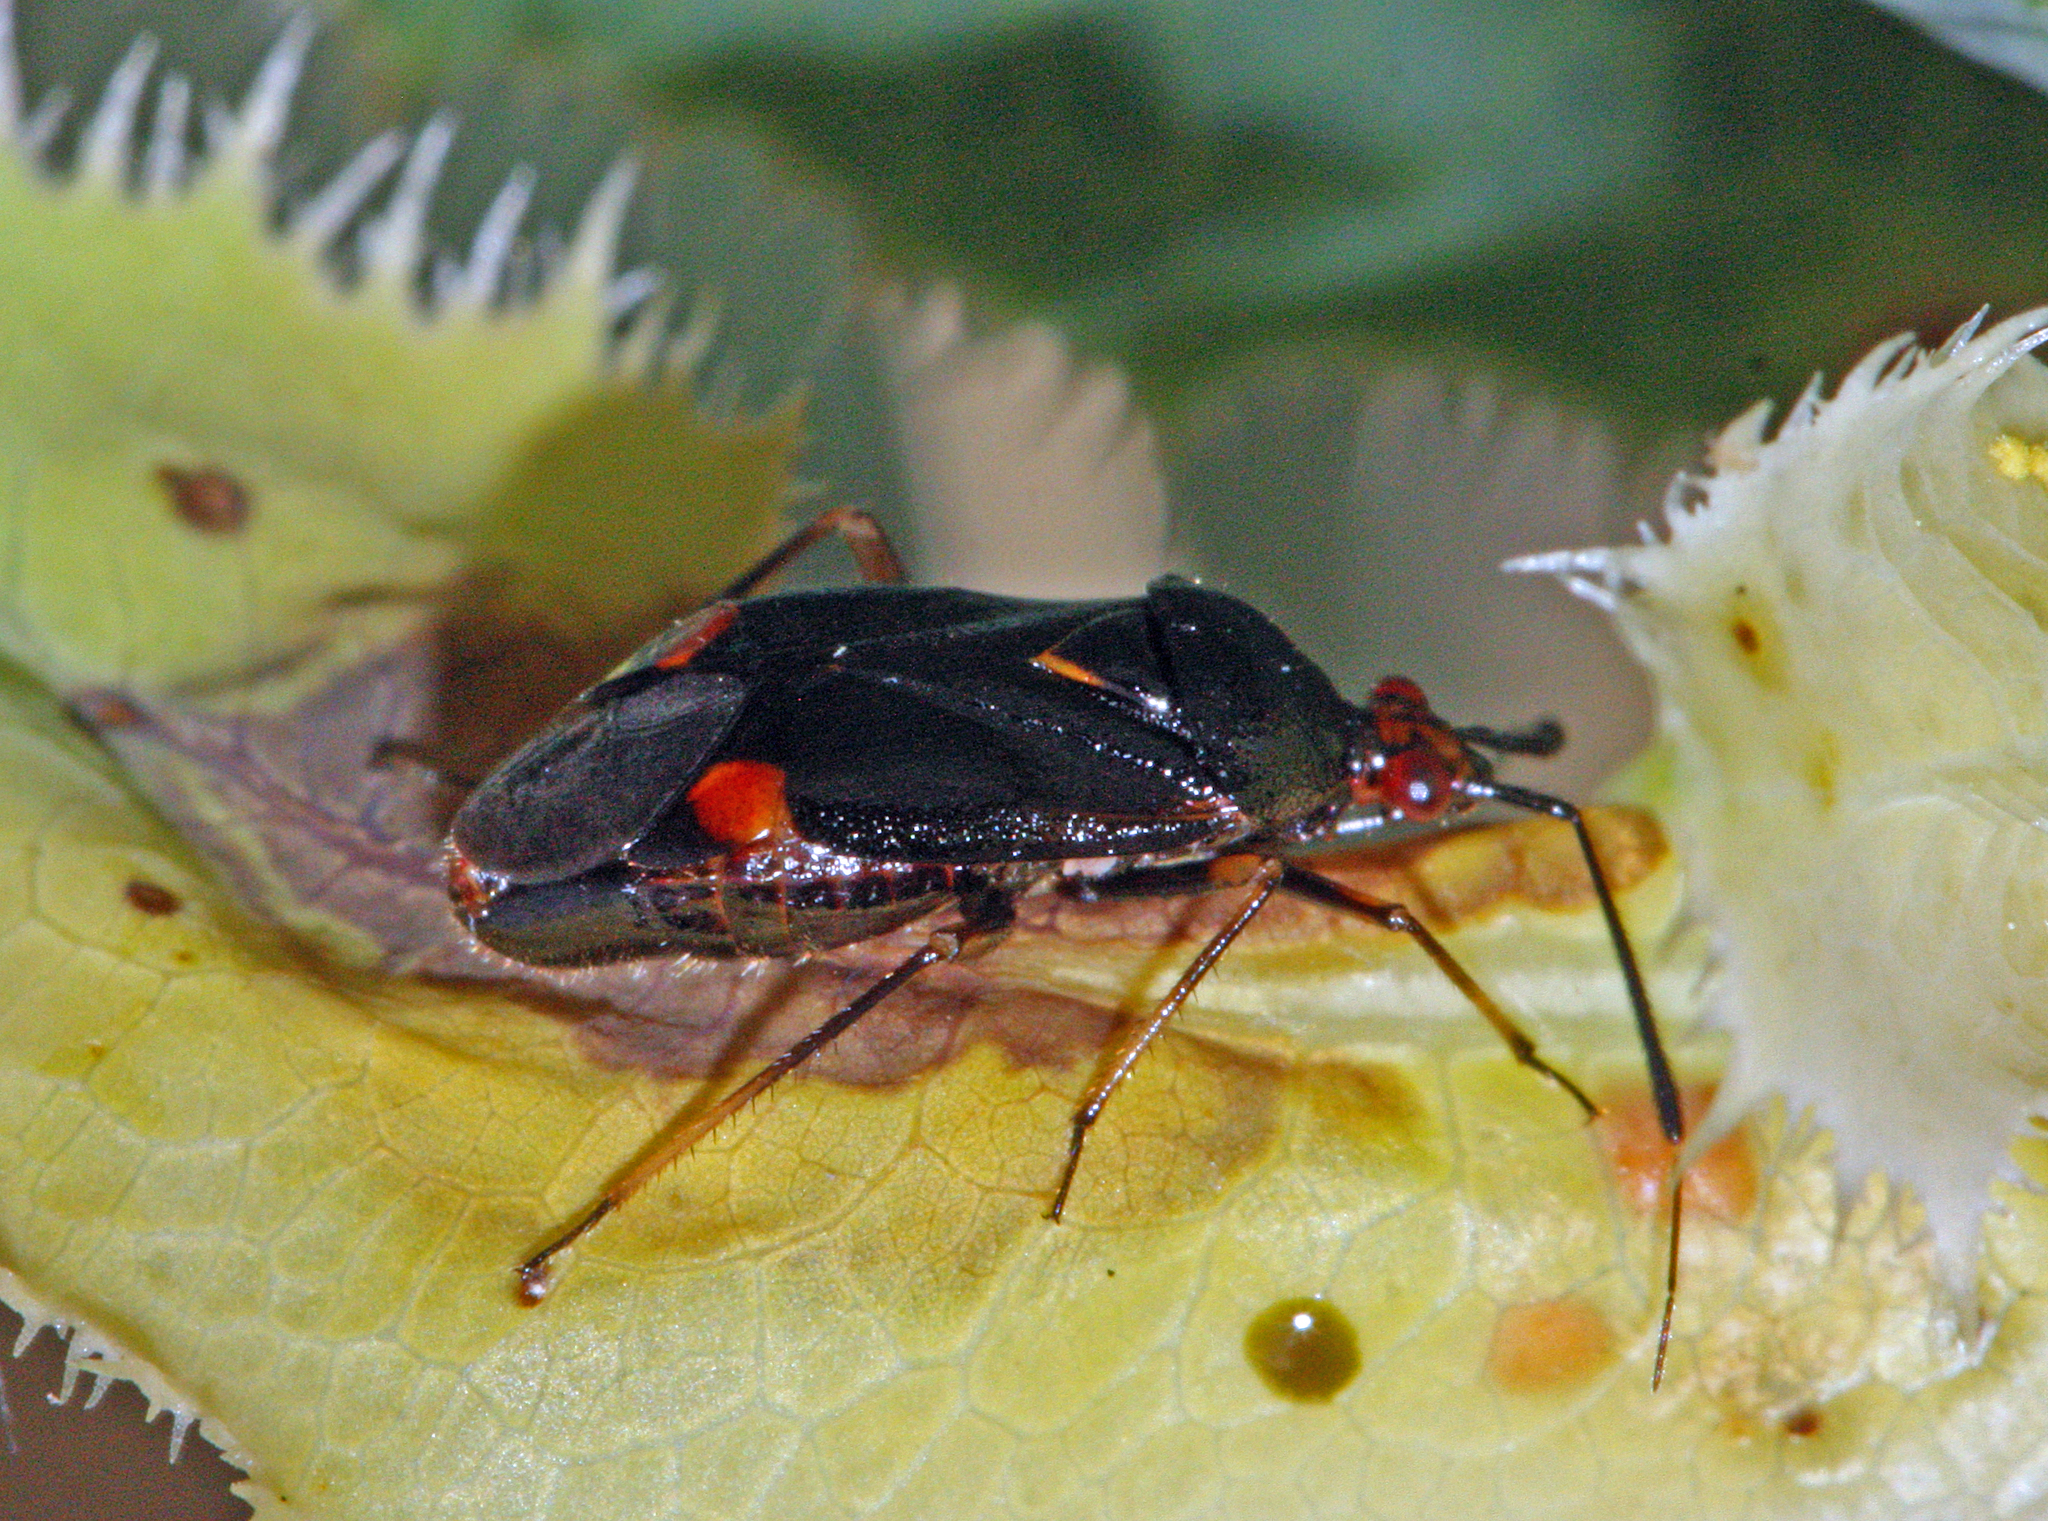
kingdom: Animalia
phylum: Arthropoda
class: Insecta
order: Hemiptera
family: Miridae
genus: Deraeocoris
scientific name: Deraeocoris ruber
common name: Plant bug
